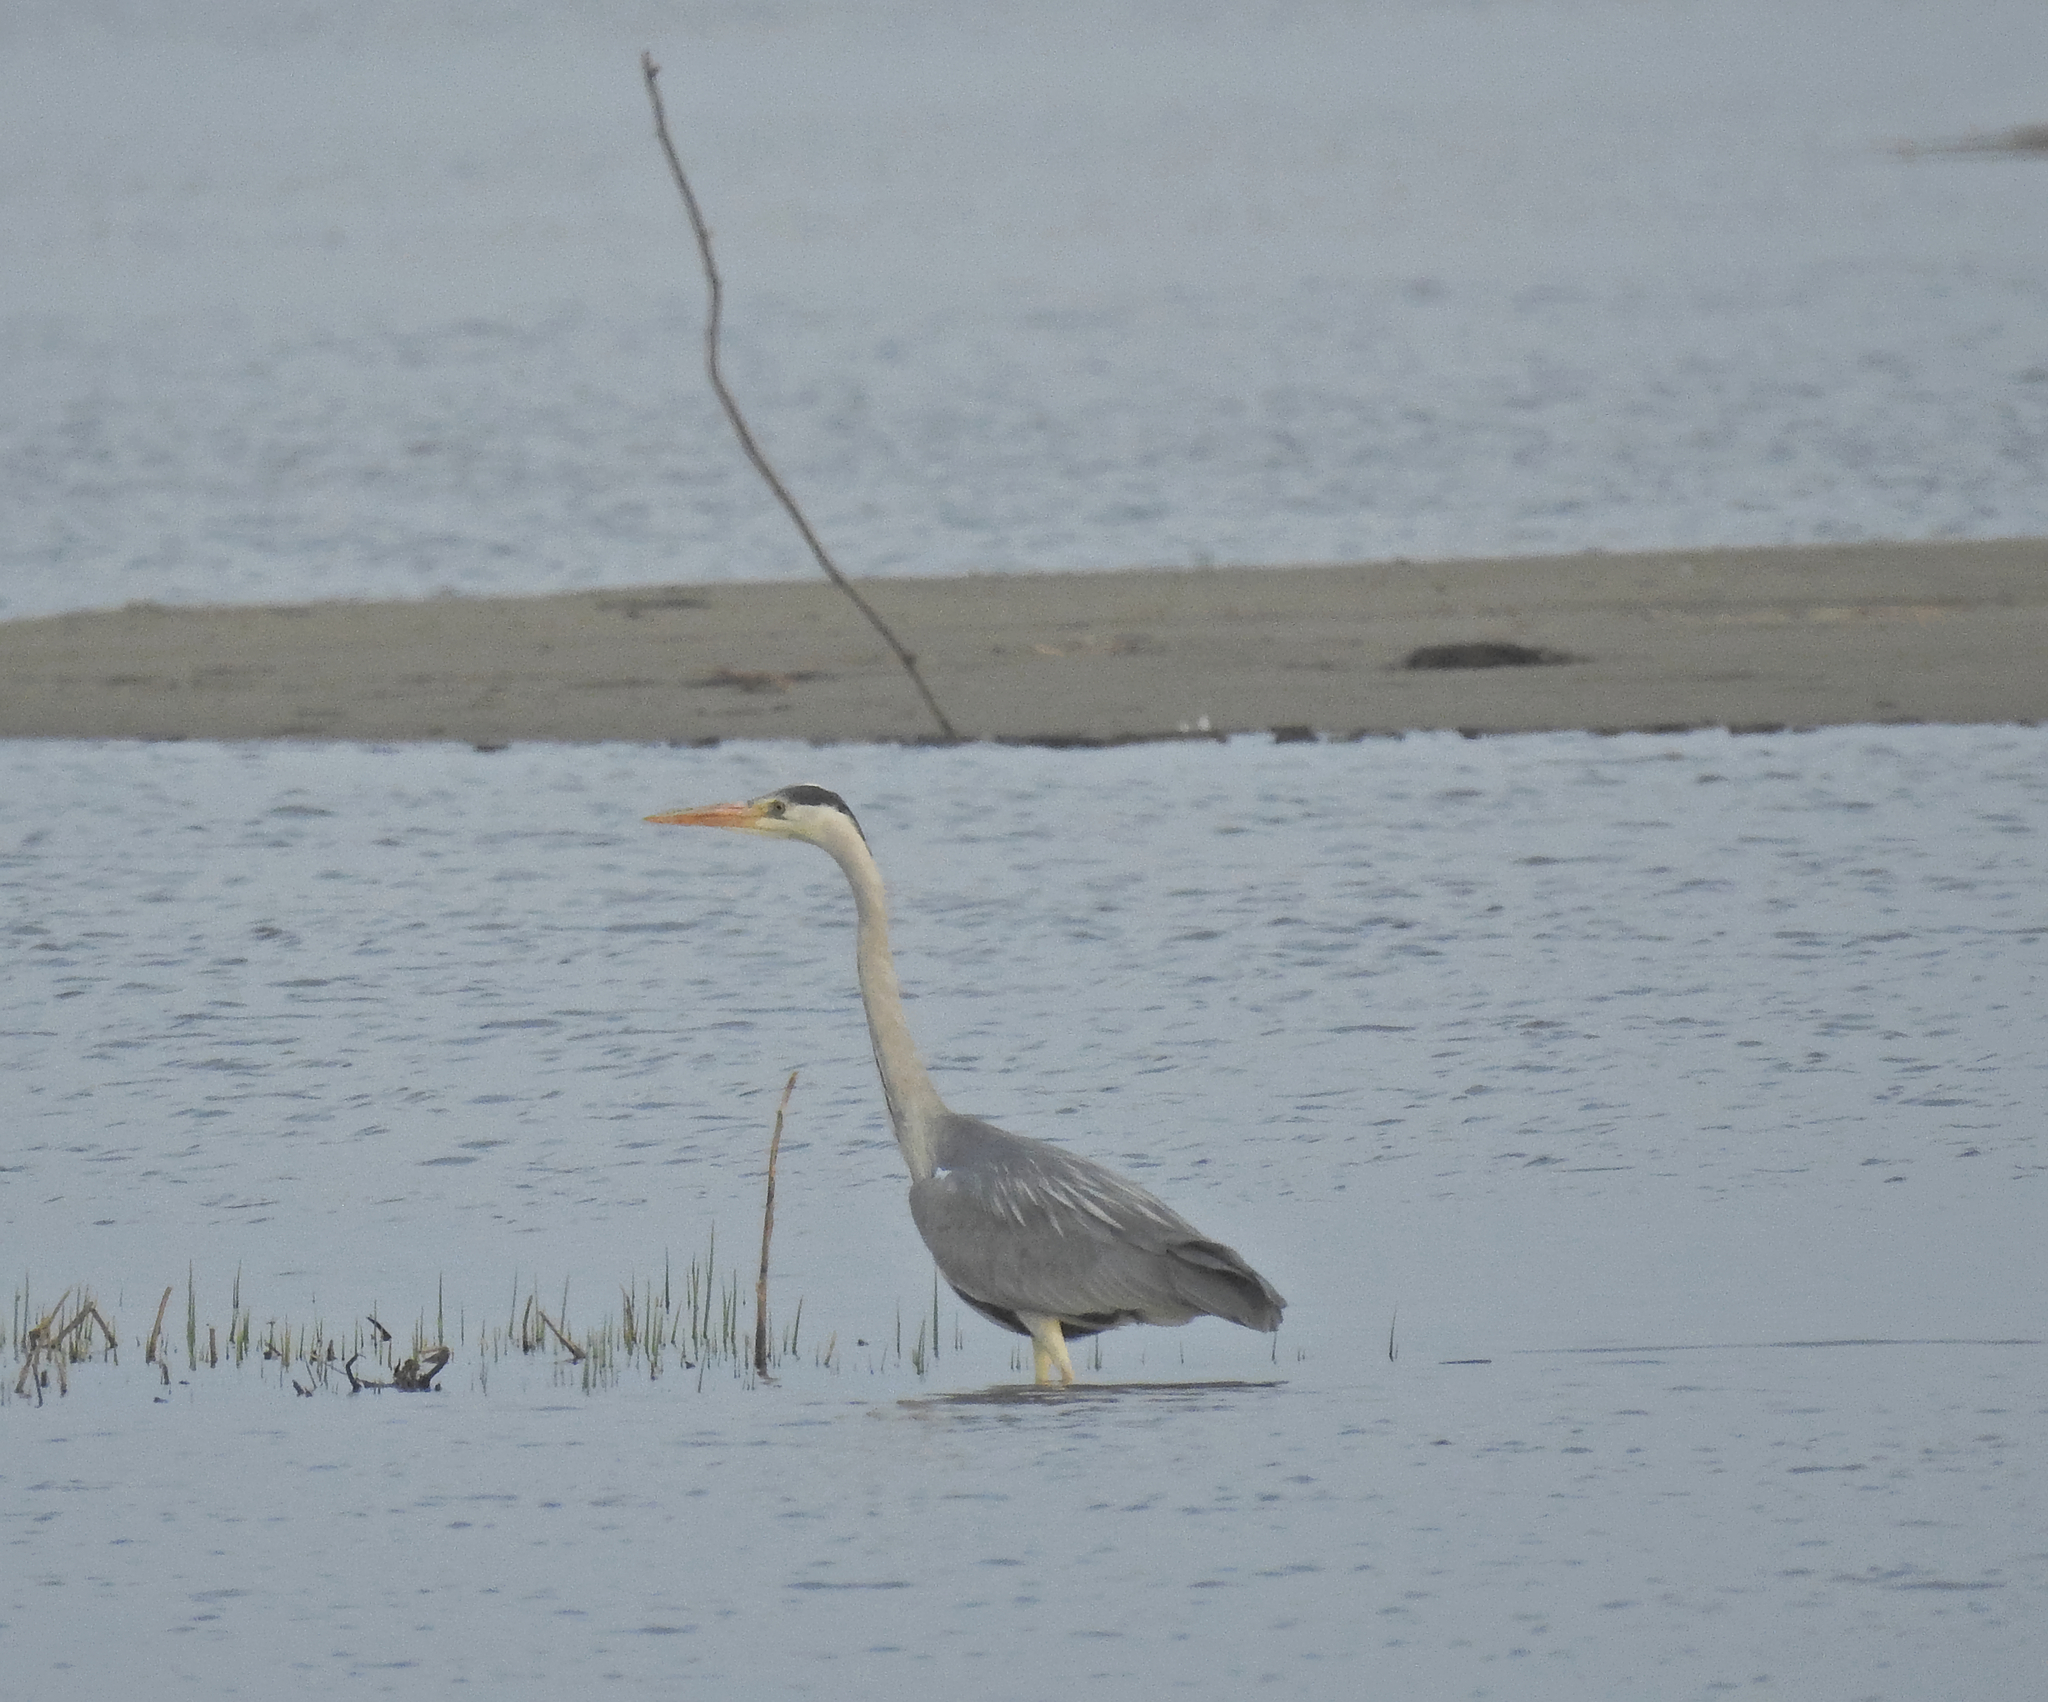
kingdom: Animalia
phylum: Chordata
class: Aves
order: Pelecaniformes
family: Ardeidae
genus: Ardea
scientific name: Ardea cinerea
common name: Grey heron
